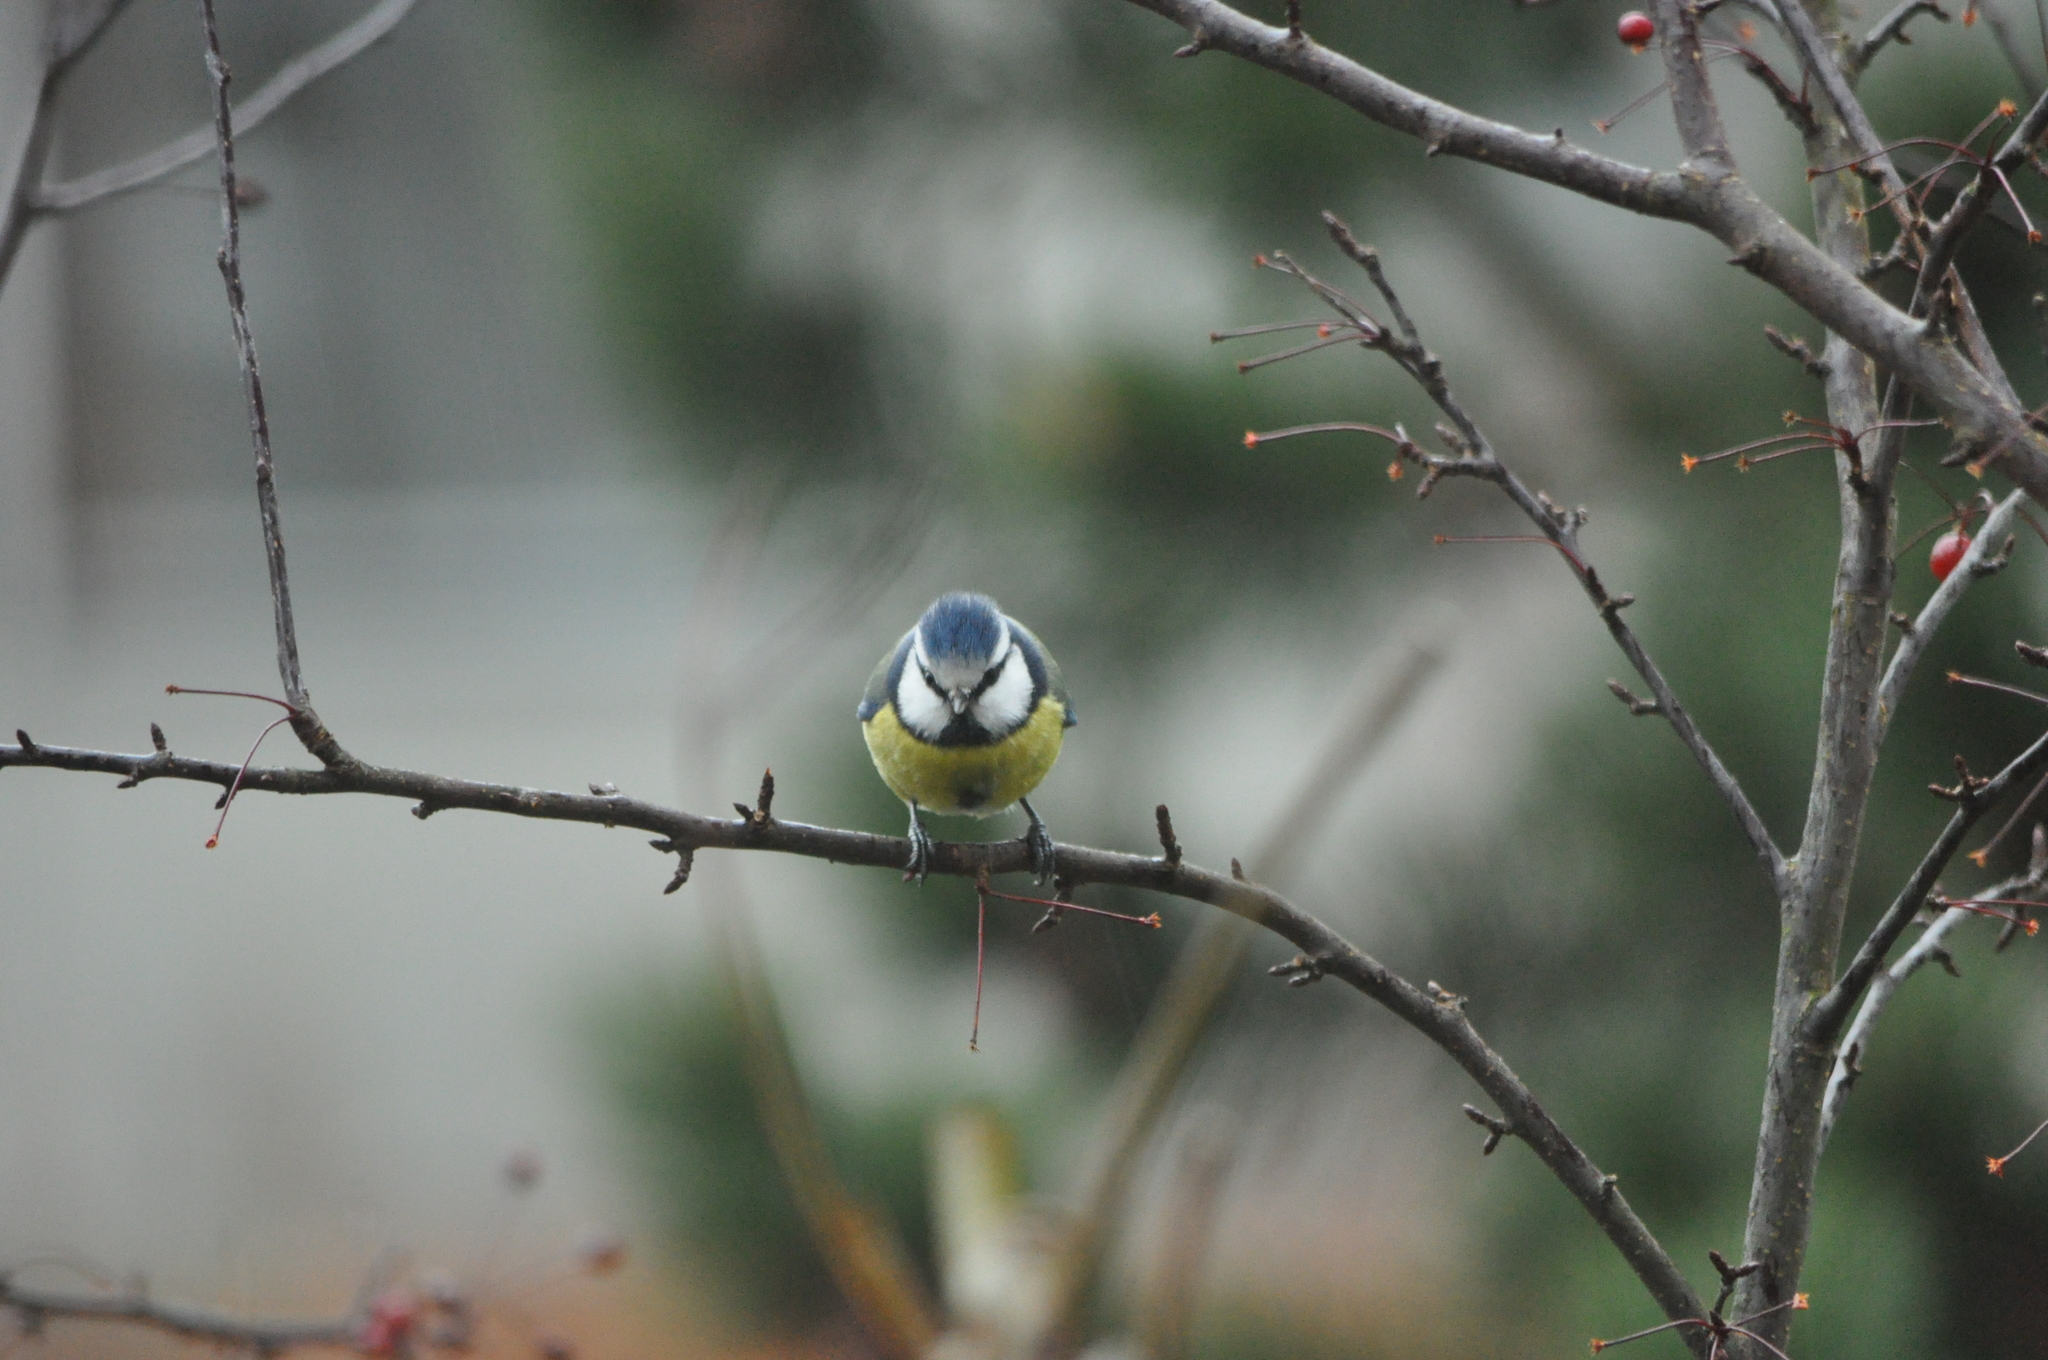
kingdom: Animalia
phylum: Chordata
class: Aves
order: Passeriformes
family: Paridae
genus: Cyanistes
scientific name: Cyanistes caeruleus
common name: Eurasian blue tit
